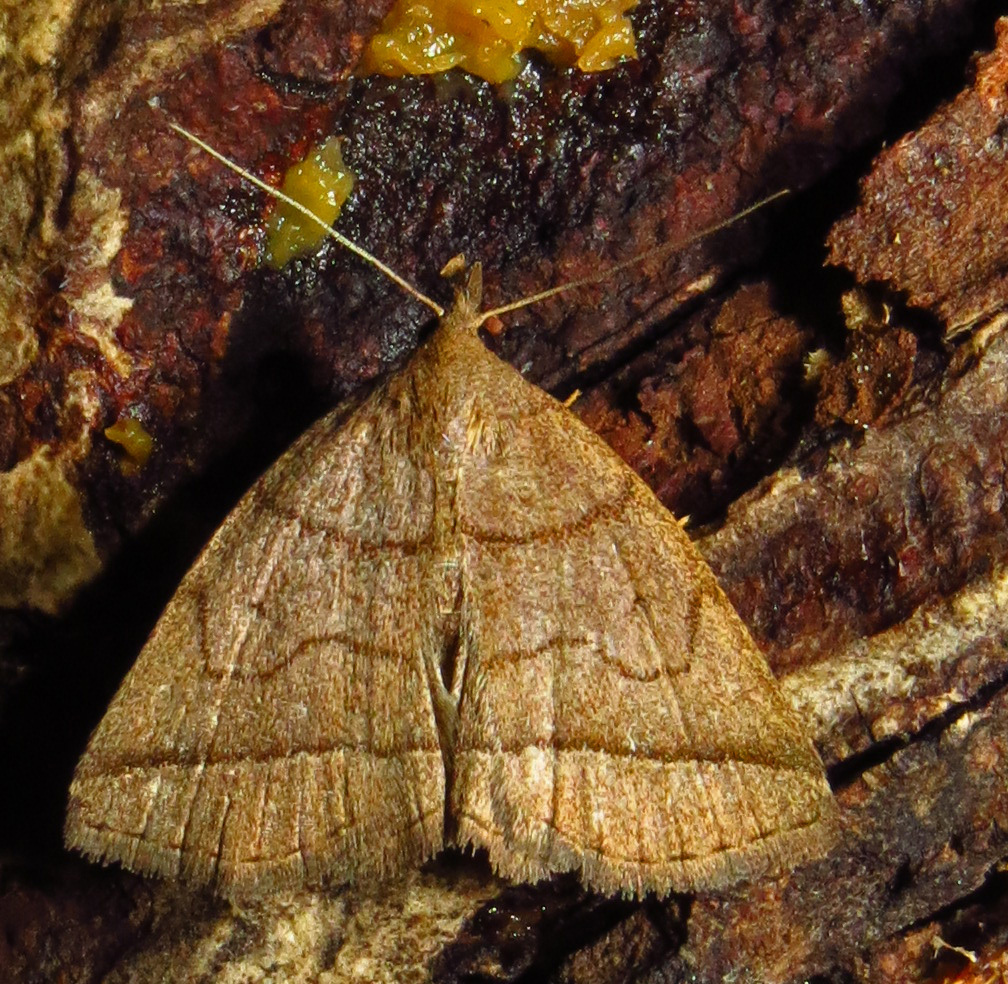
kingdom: Animalia
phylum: Arthropoda
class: Insecta
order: Lepidoptera
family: Erebidae
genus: Zanclognatha
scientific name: Zanclognatha cruralis
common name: Early fan-foot
